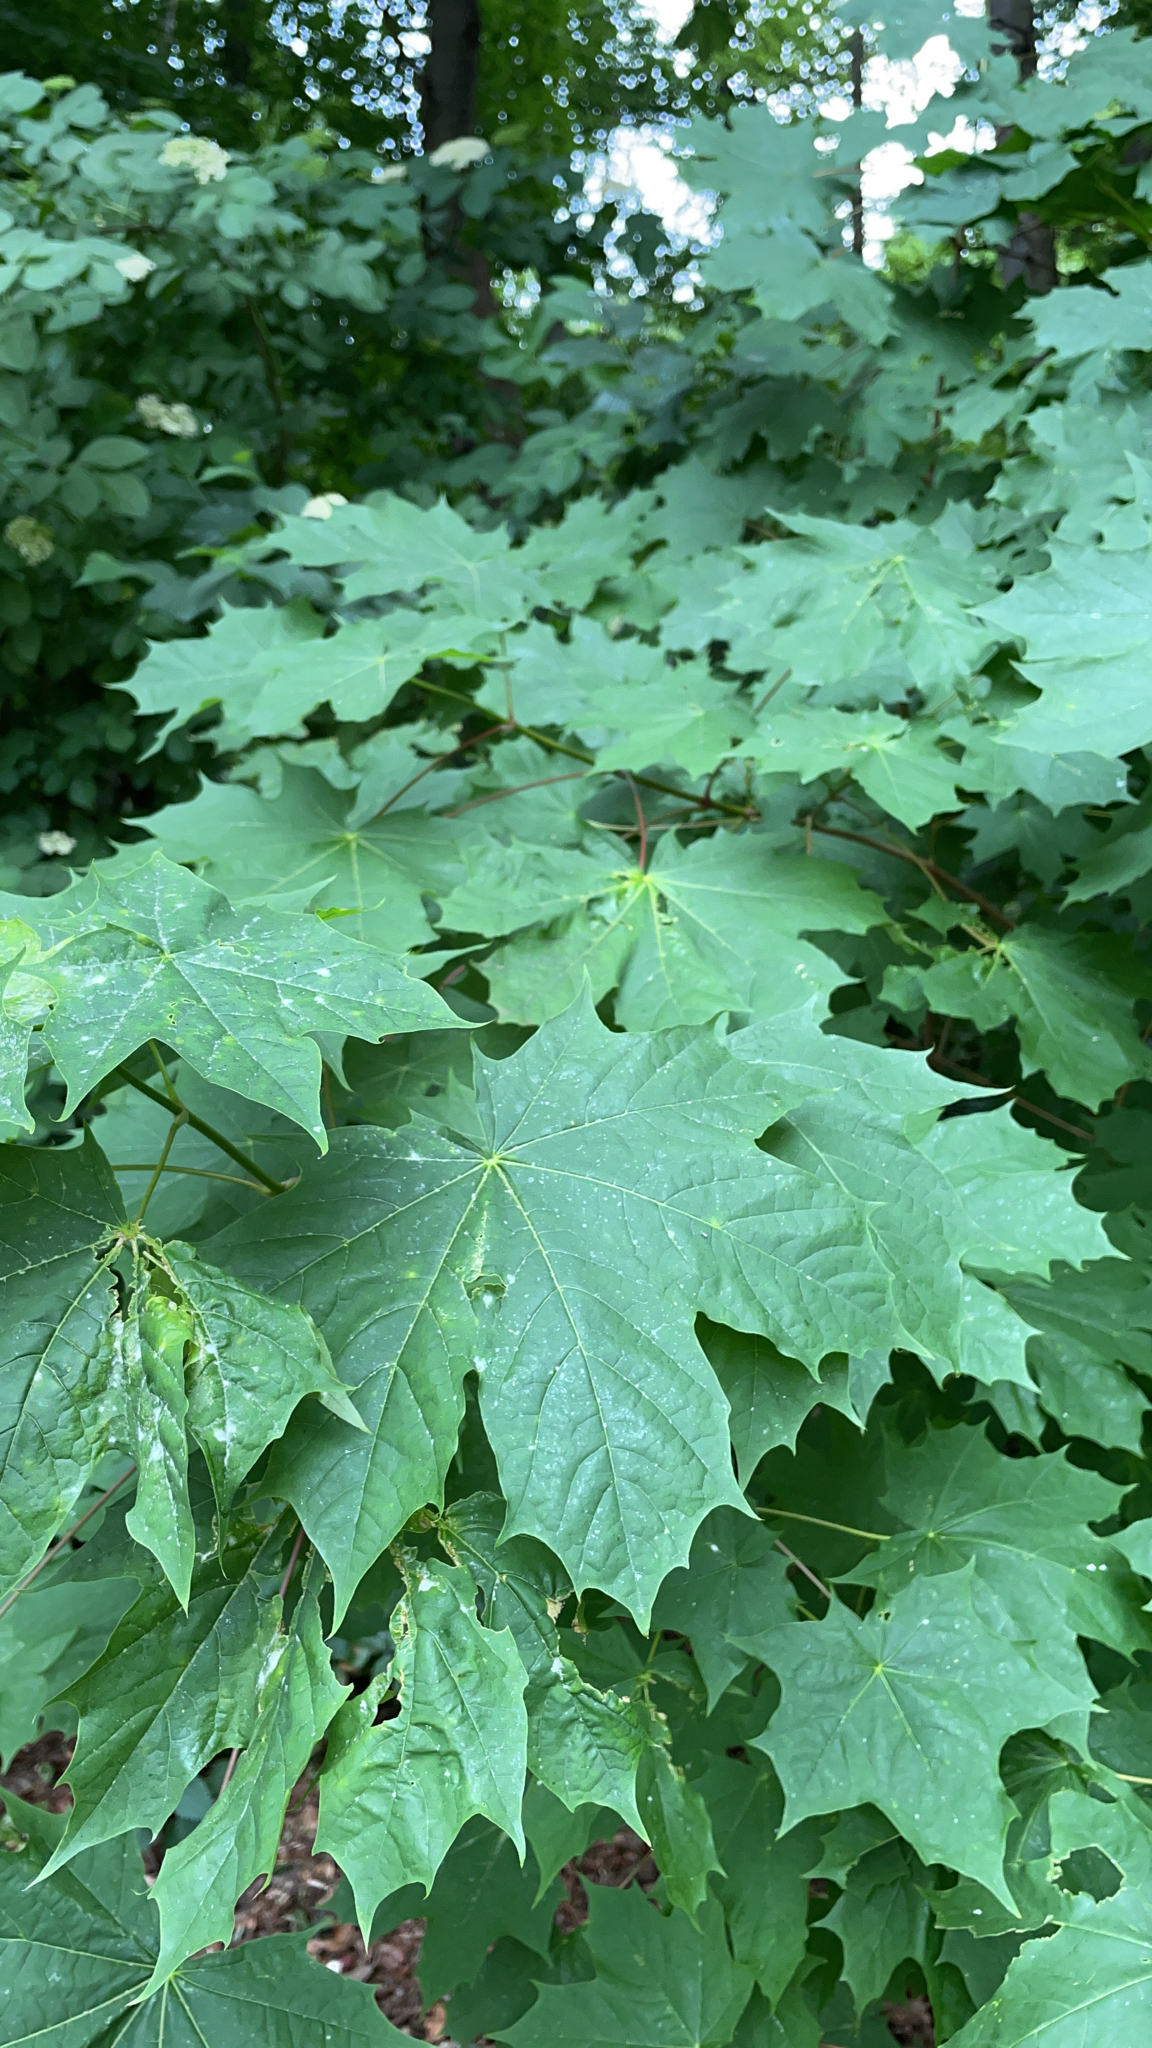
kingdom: Plantae
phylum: Tracheophyta
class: Magnoliopsida
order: Sapindales
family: Sapindaceae
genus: Acer
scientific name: Acer platanoides
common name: Norway maple
